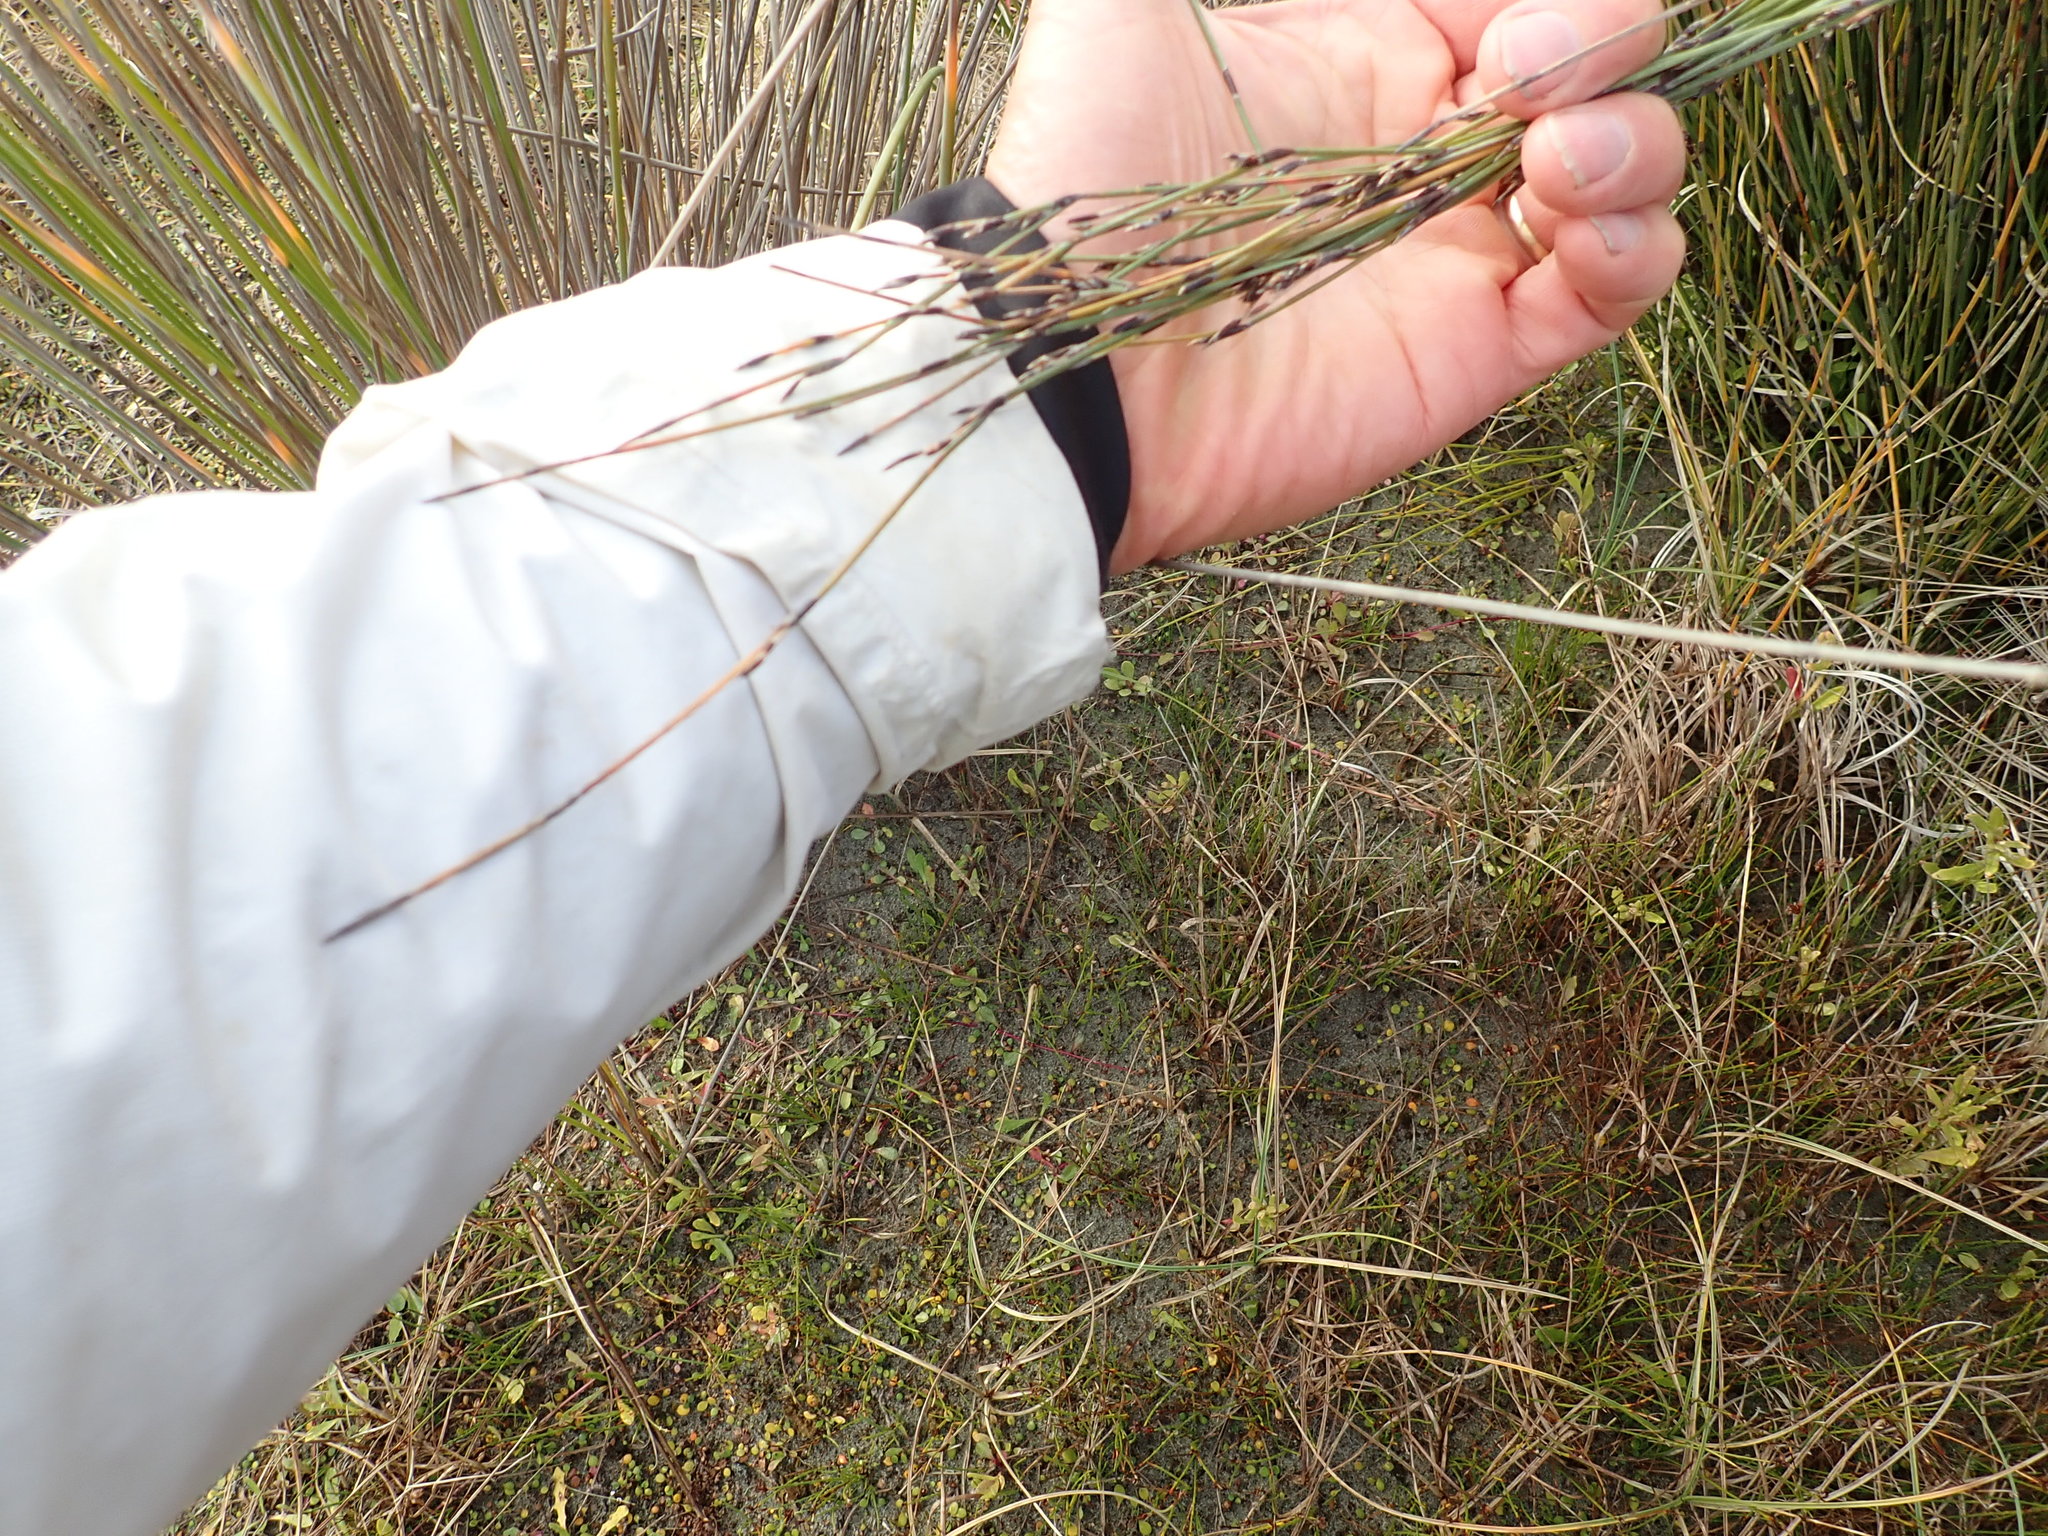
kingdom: Plantae
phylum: Tracheophyta
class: Liliopsida
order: Poales
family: Restionaceae
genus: Apodasmia
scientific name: Apodasmia similis
